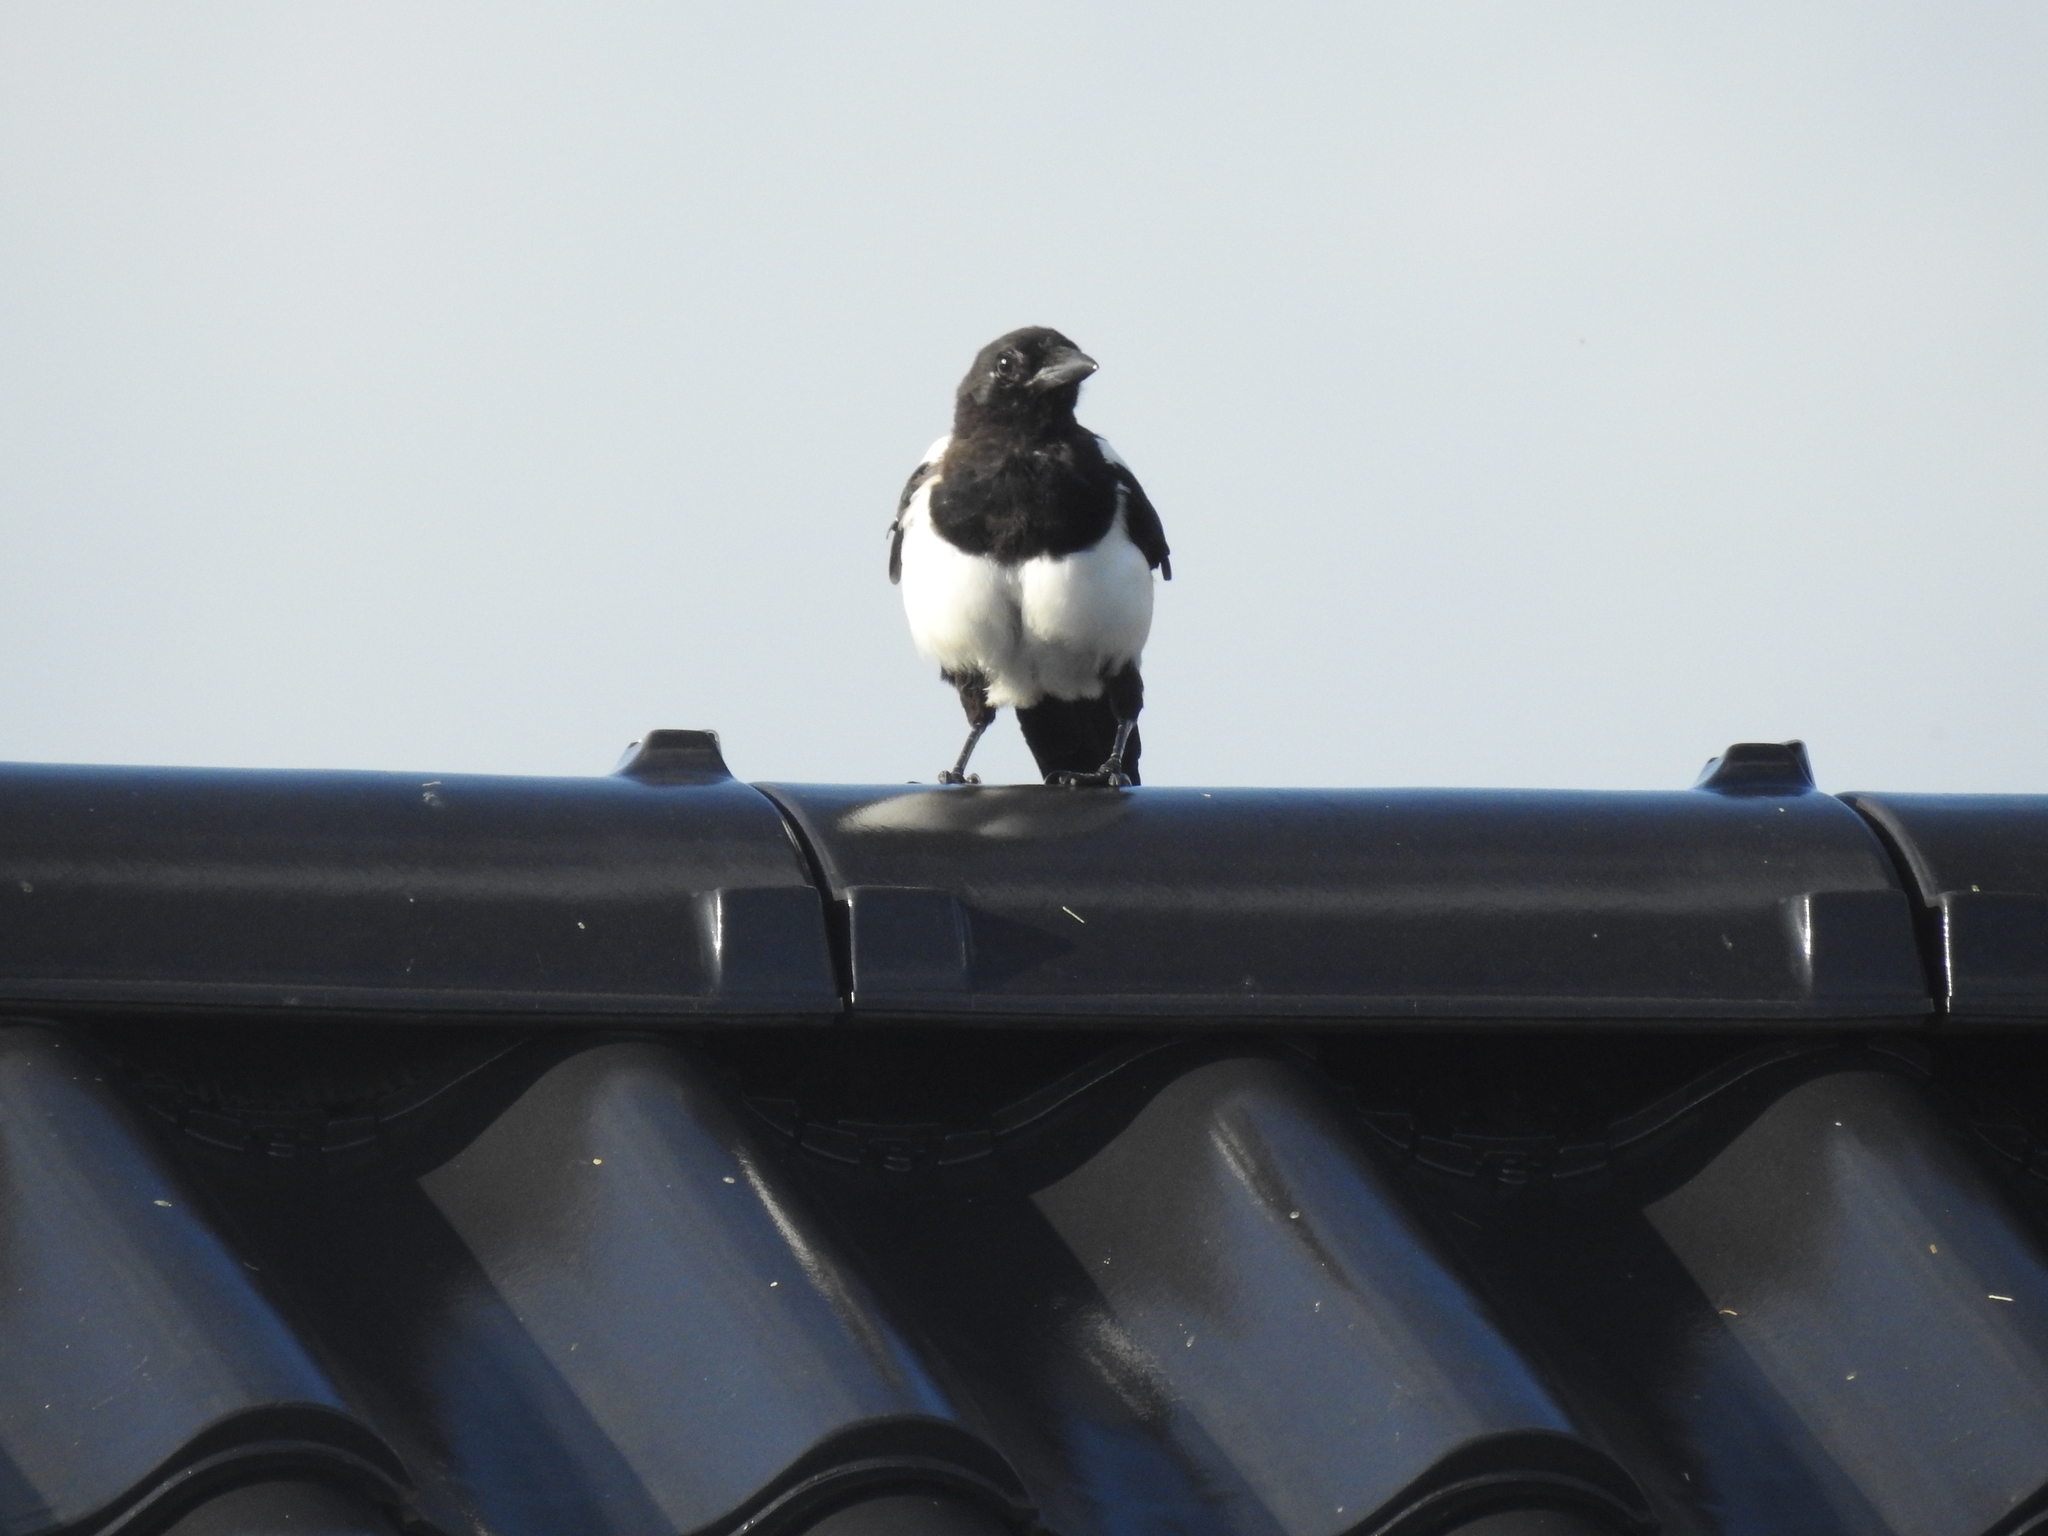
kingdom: Animalia
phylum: Chordata
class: Aves
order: Passeriformes
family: Corvidae
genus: Pica
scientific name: Pica pica
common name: Eurasian magpie
